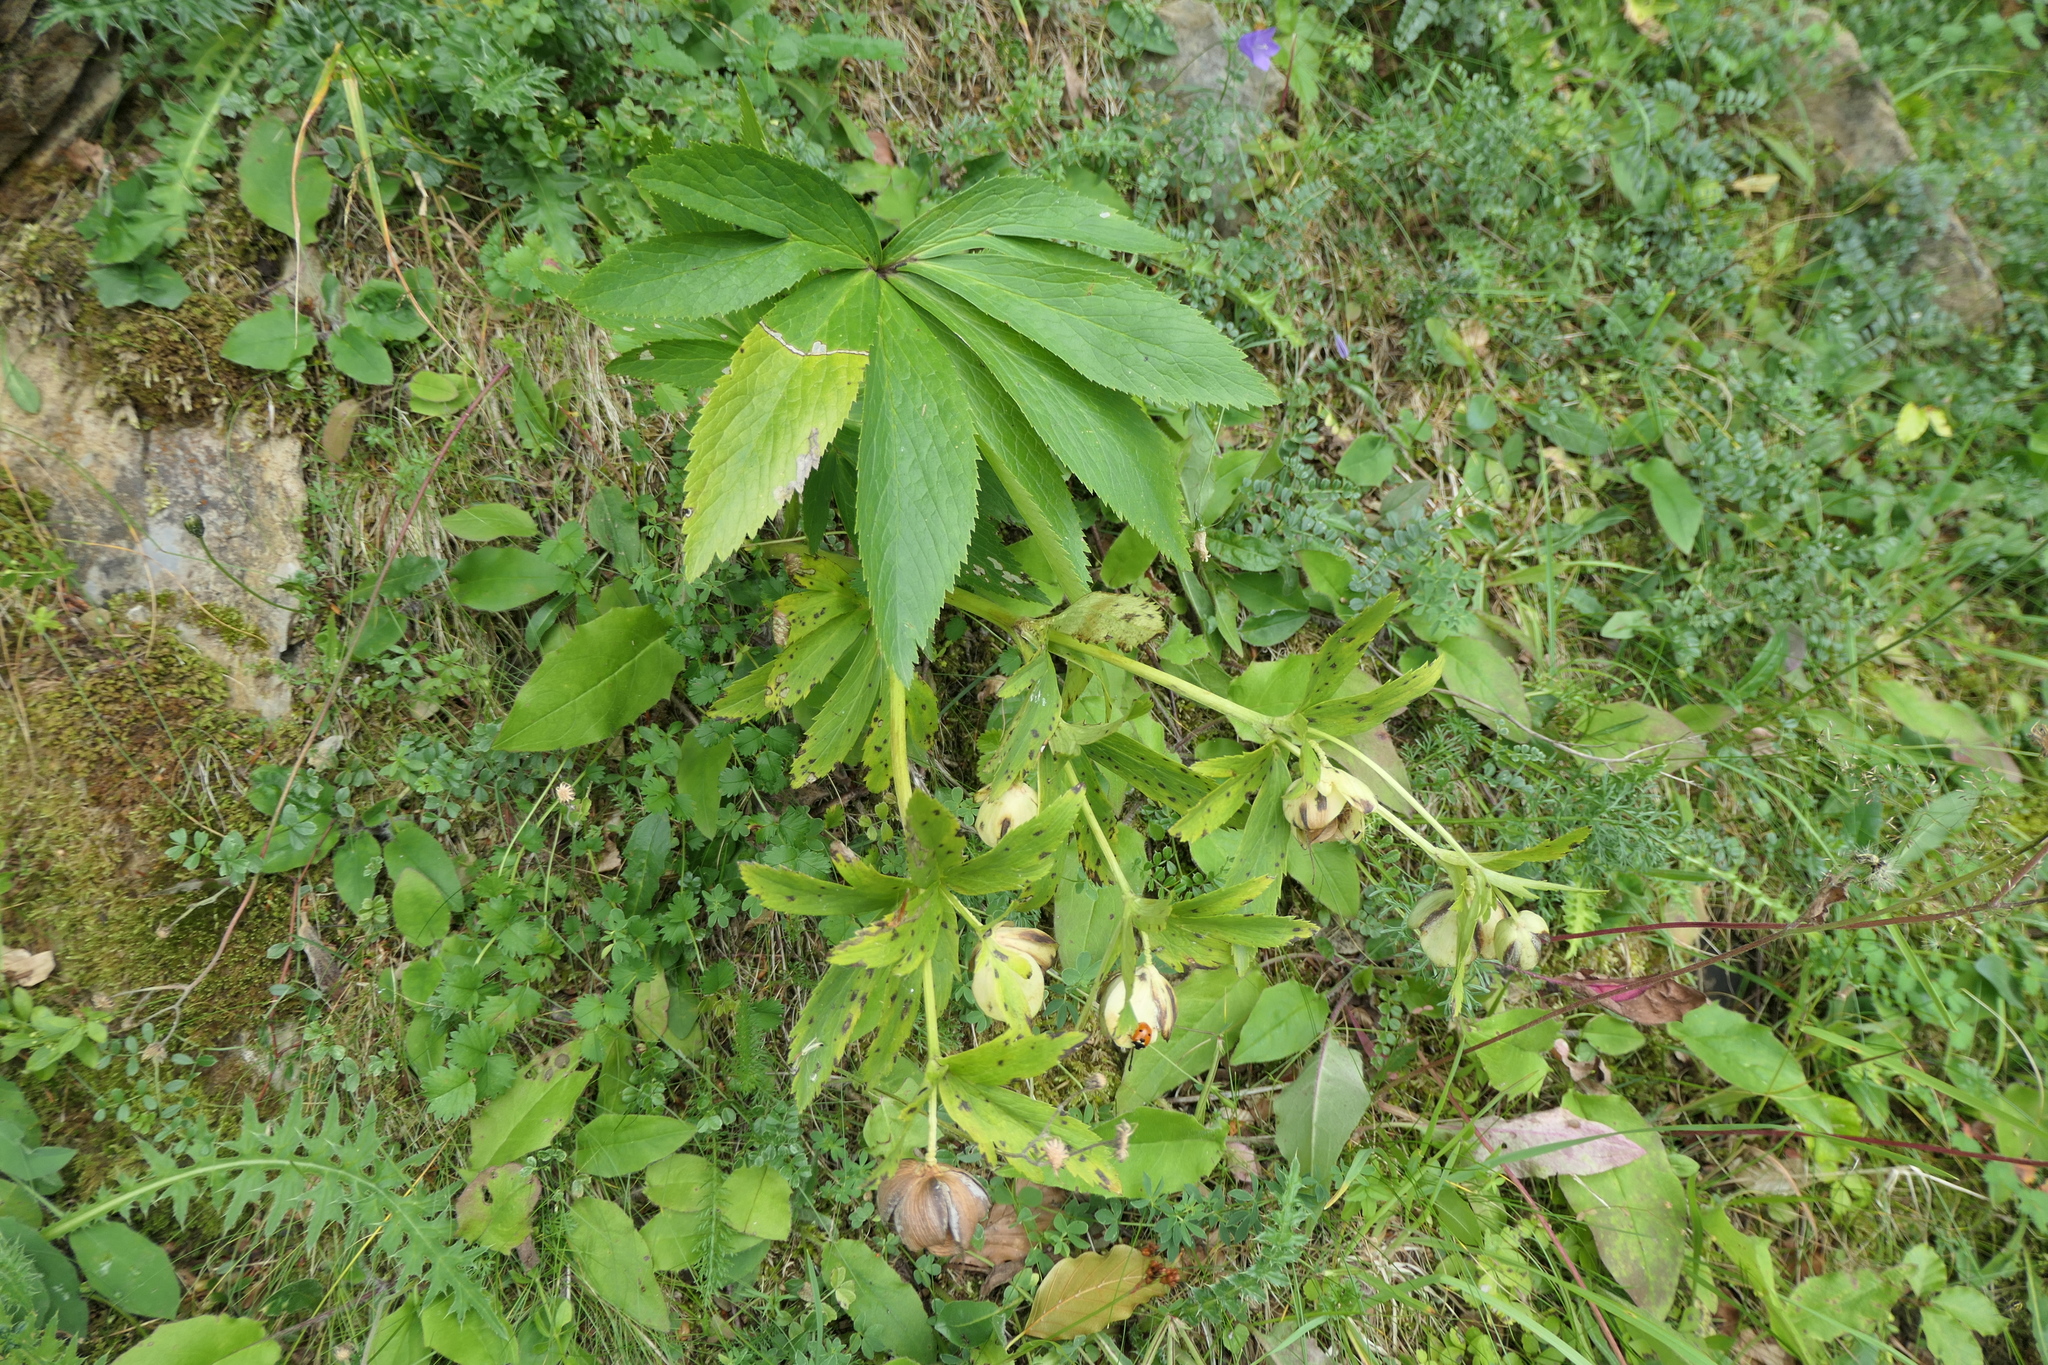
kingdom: Plantae
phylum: Tracheophyta
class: Magnoliopsida
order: Ranunculales
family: Ranunculaceae
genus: Helleborus
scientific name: Helleborus viridis
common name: Green hellebore
